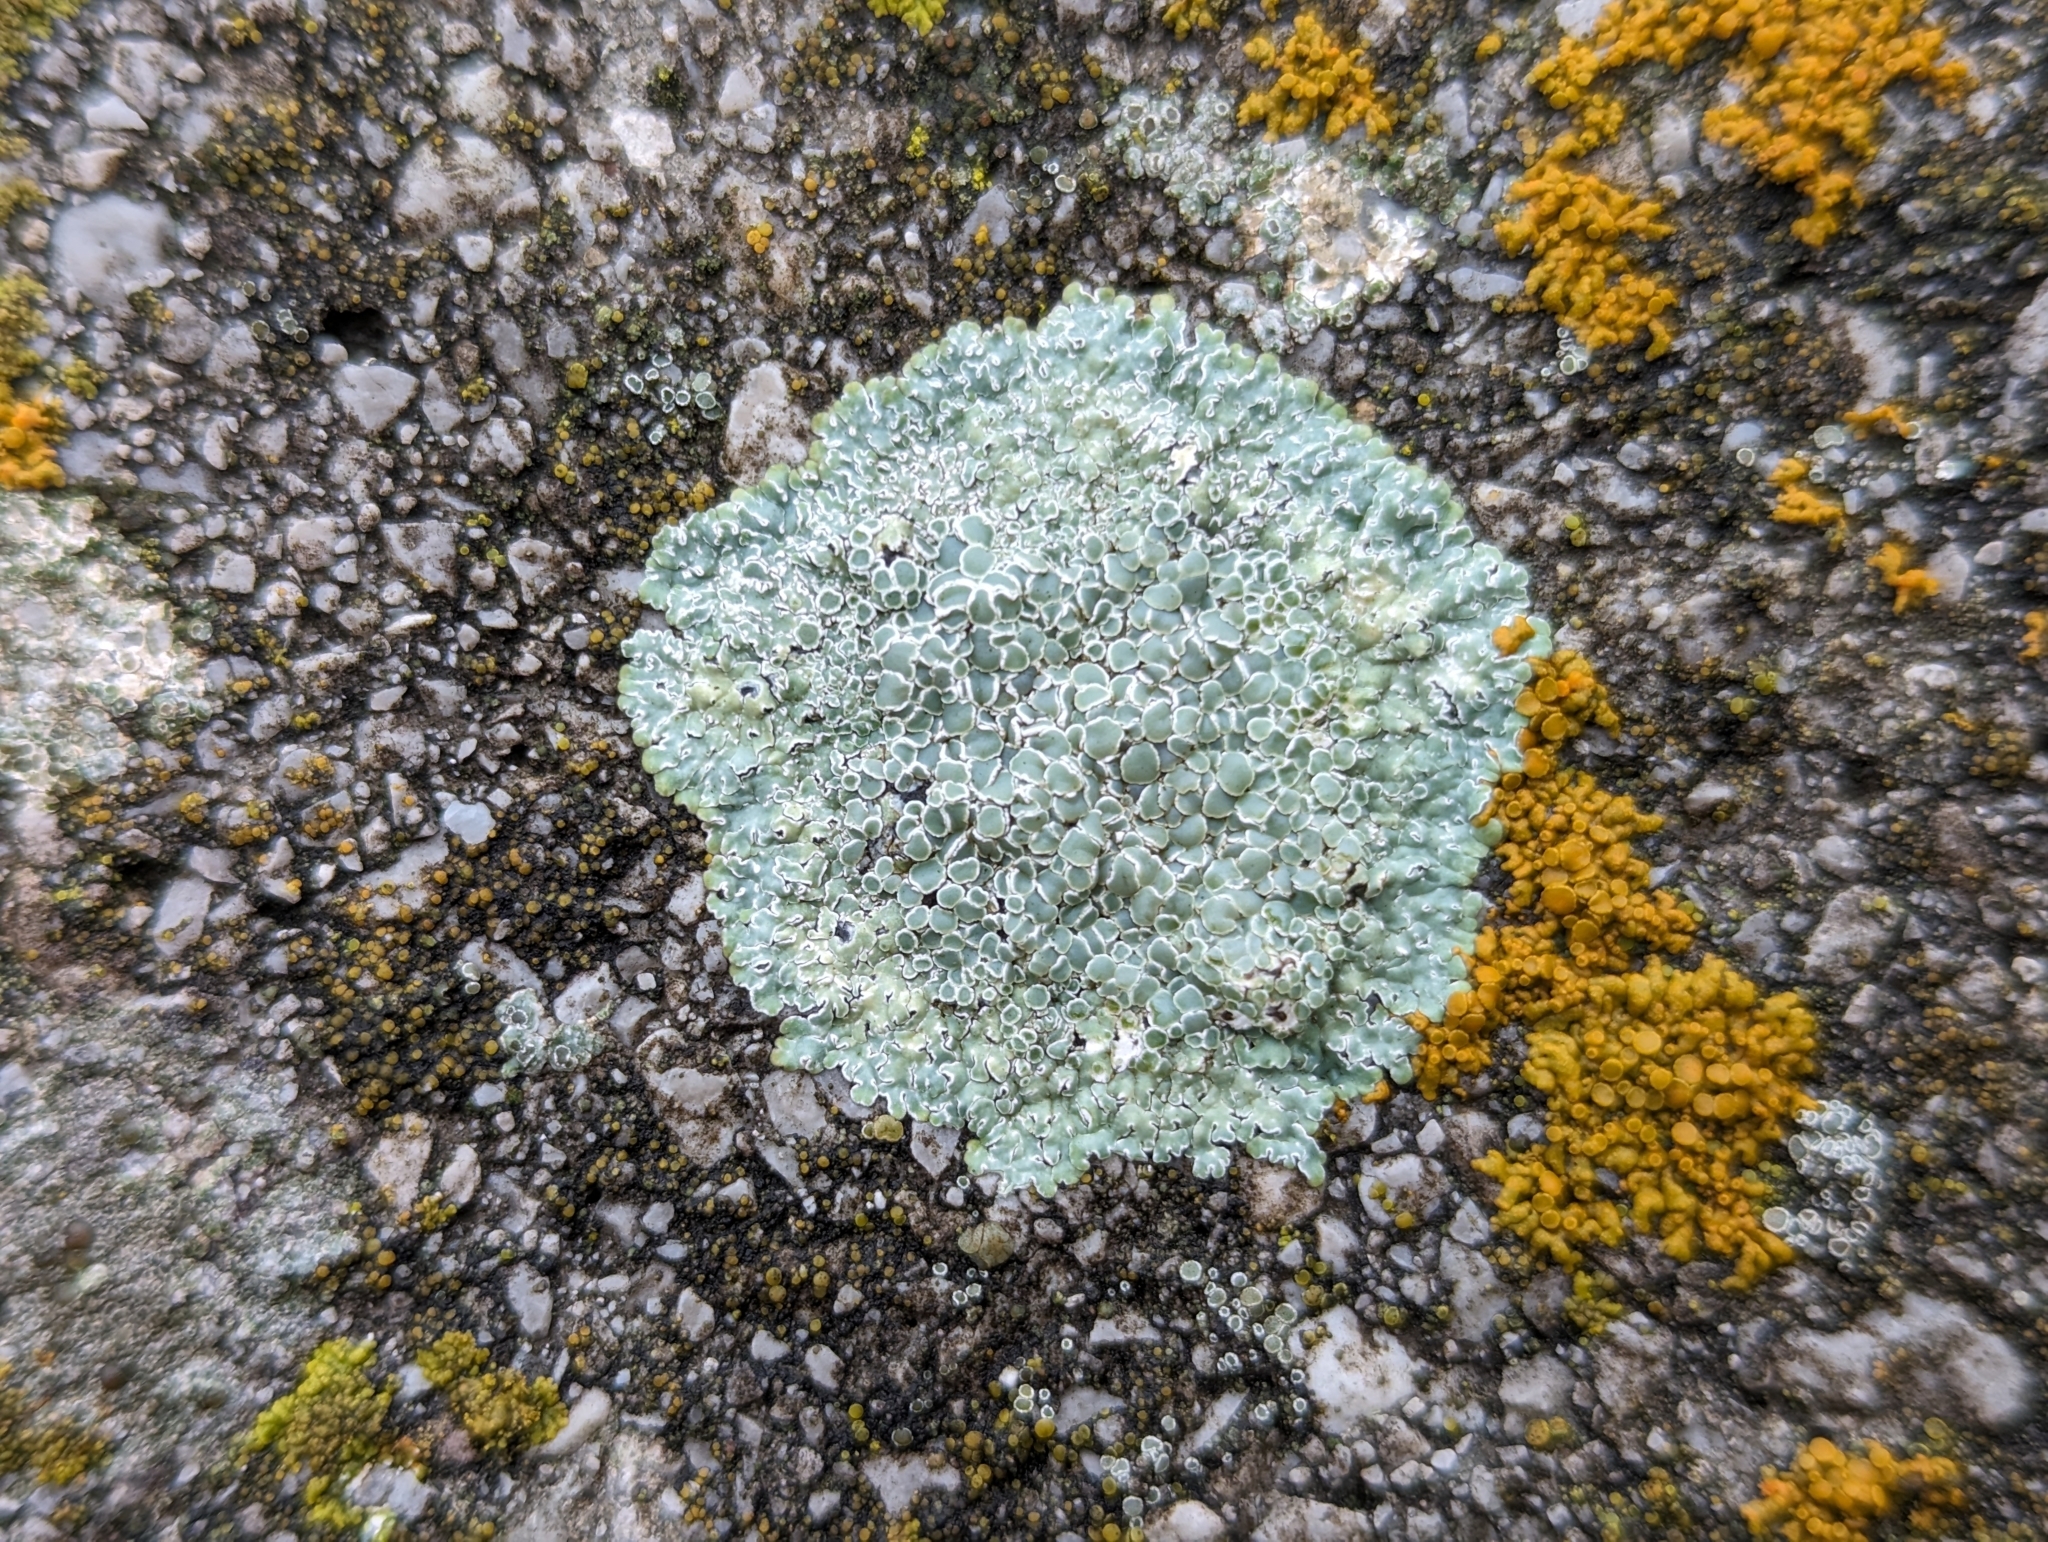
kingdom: Fungi
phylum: Ascomycota
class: Lecanoromycetes
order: Lecanorales
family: Lecanoraceae
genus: Protoparmeliopsis
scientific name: Protoparmeliopsis muralis
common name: Stonewall rim lichen
